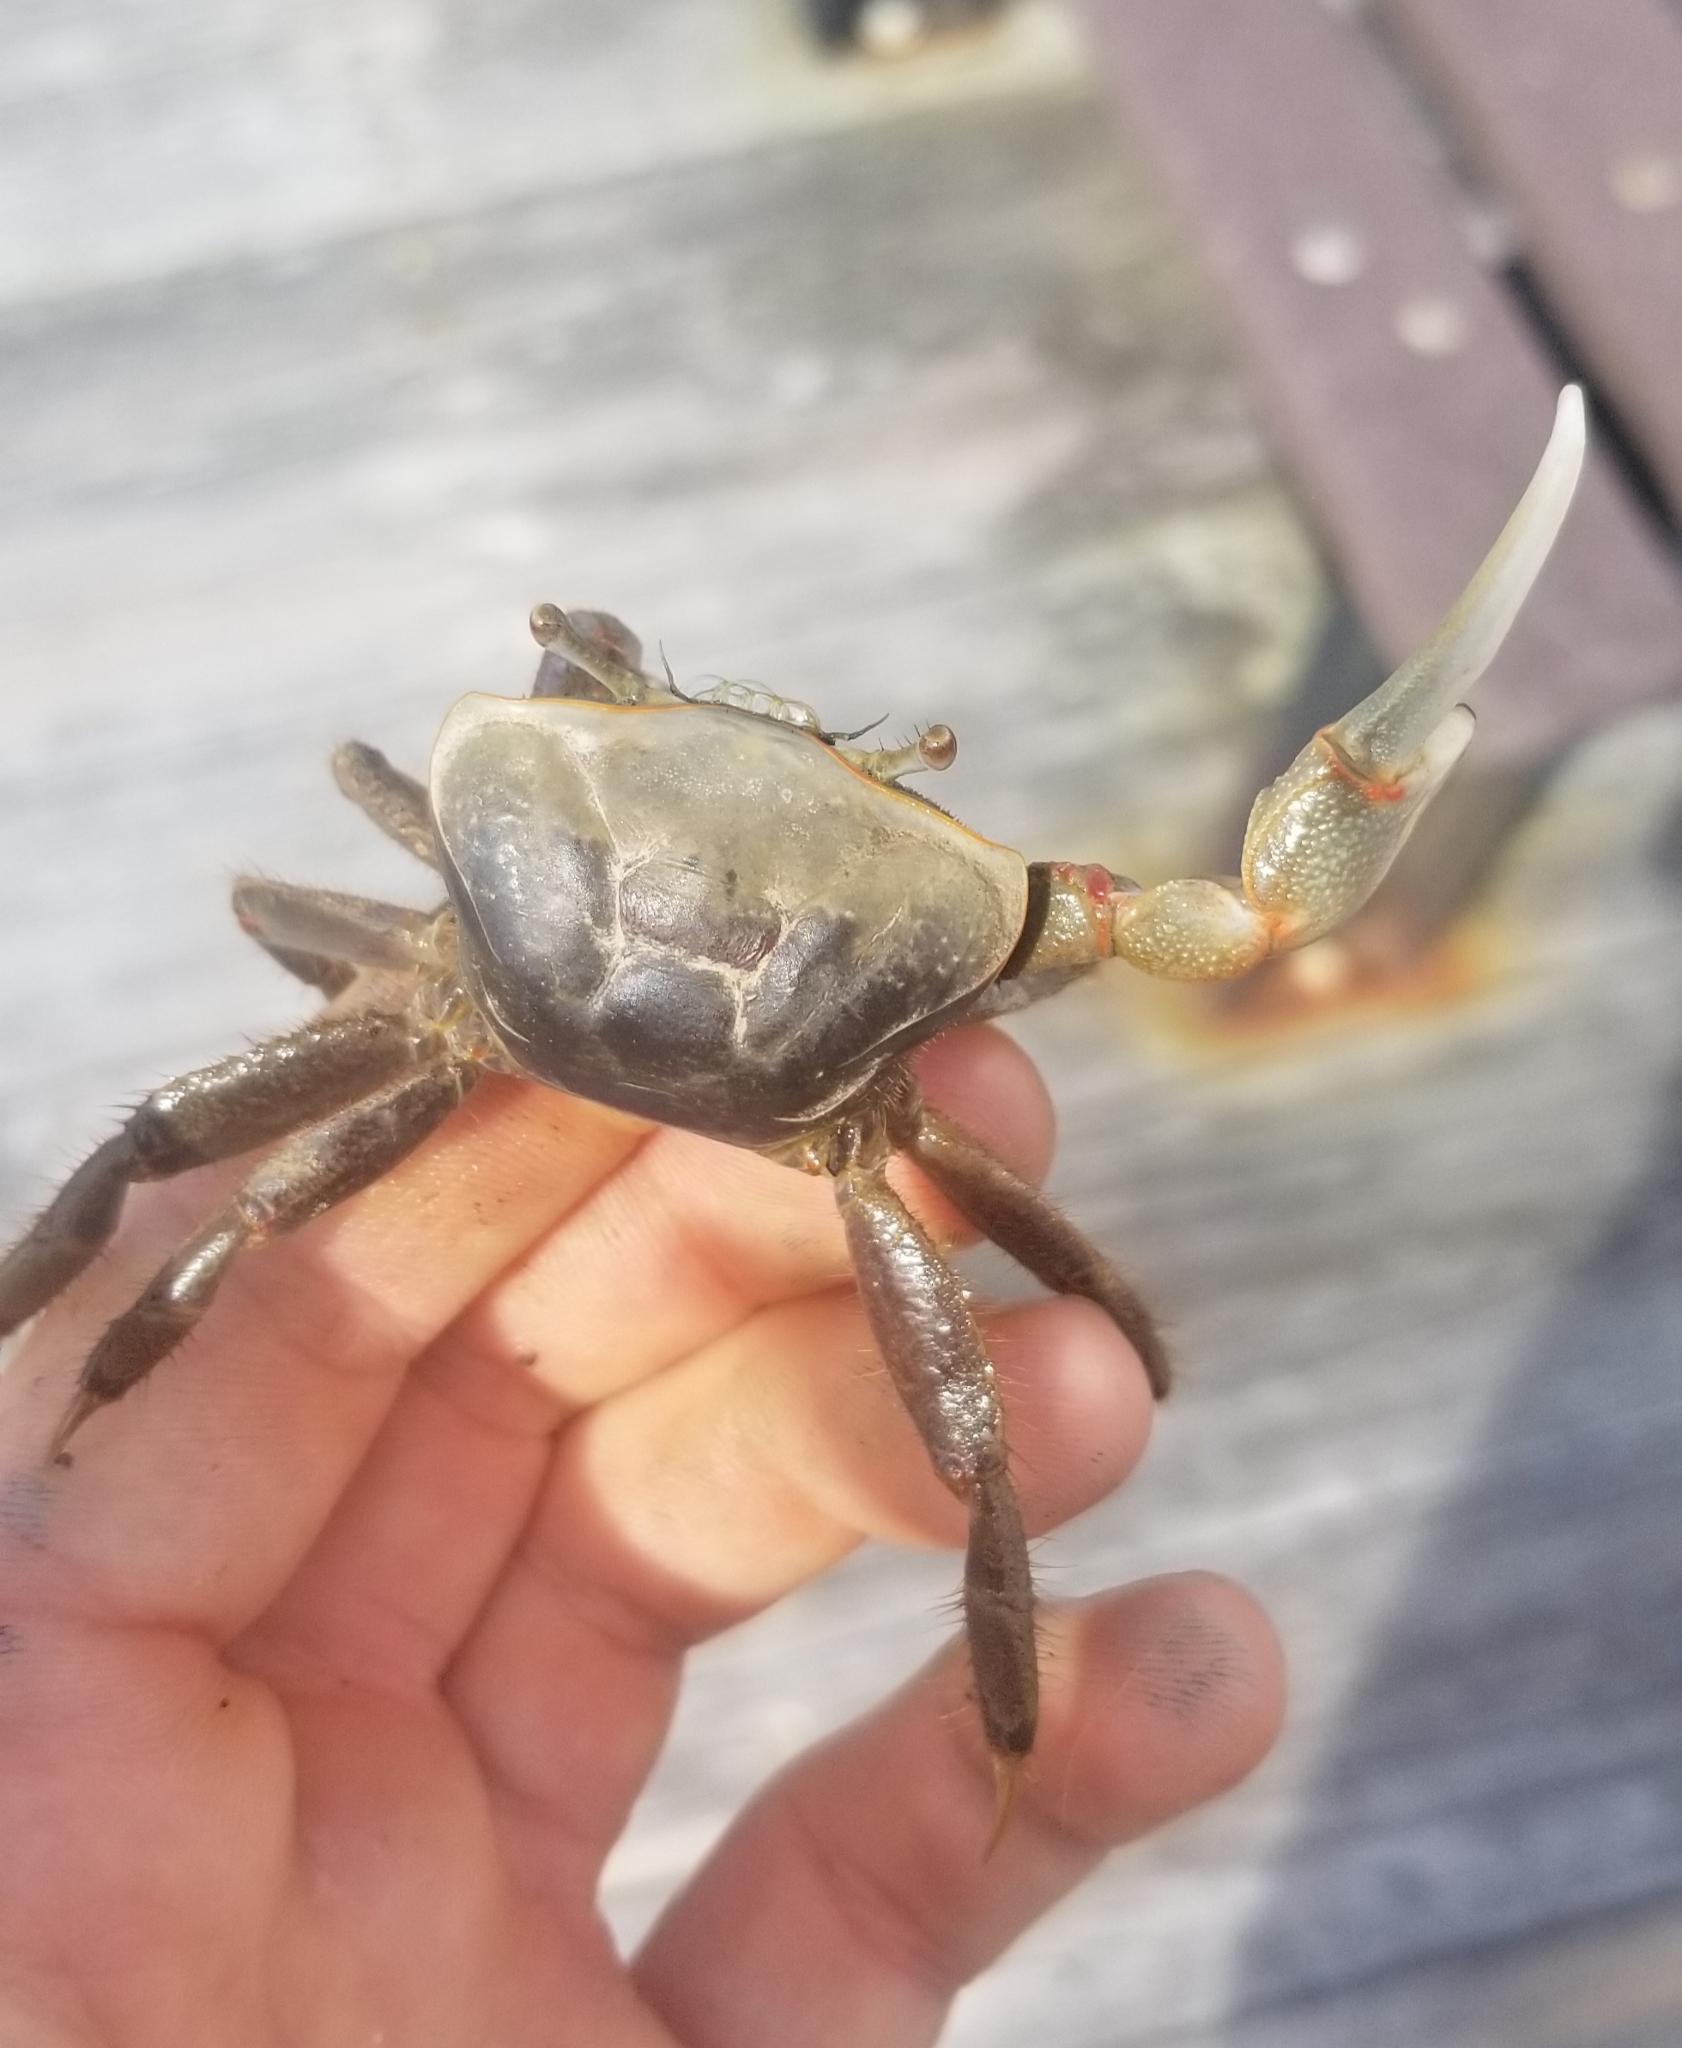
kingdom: Animalia
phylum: Arthropoda
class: Malacostraca
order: Decapoda
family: Ocypodidae
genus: Minuca
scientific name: Minuca minax
